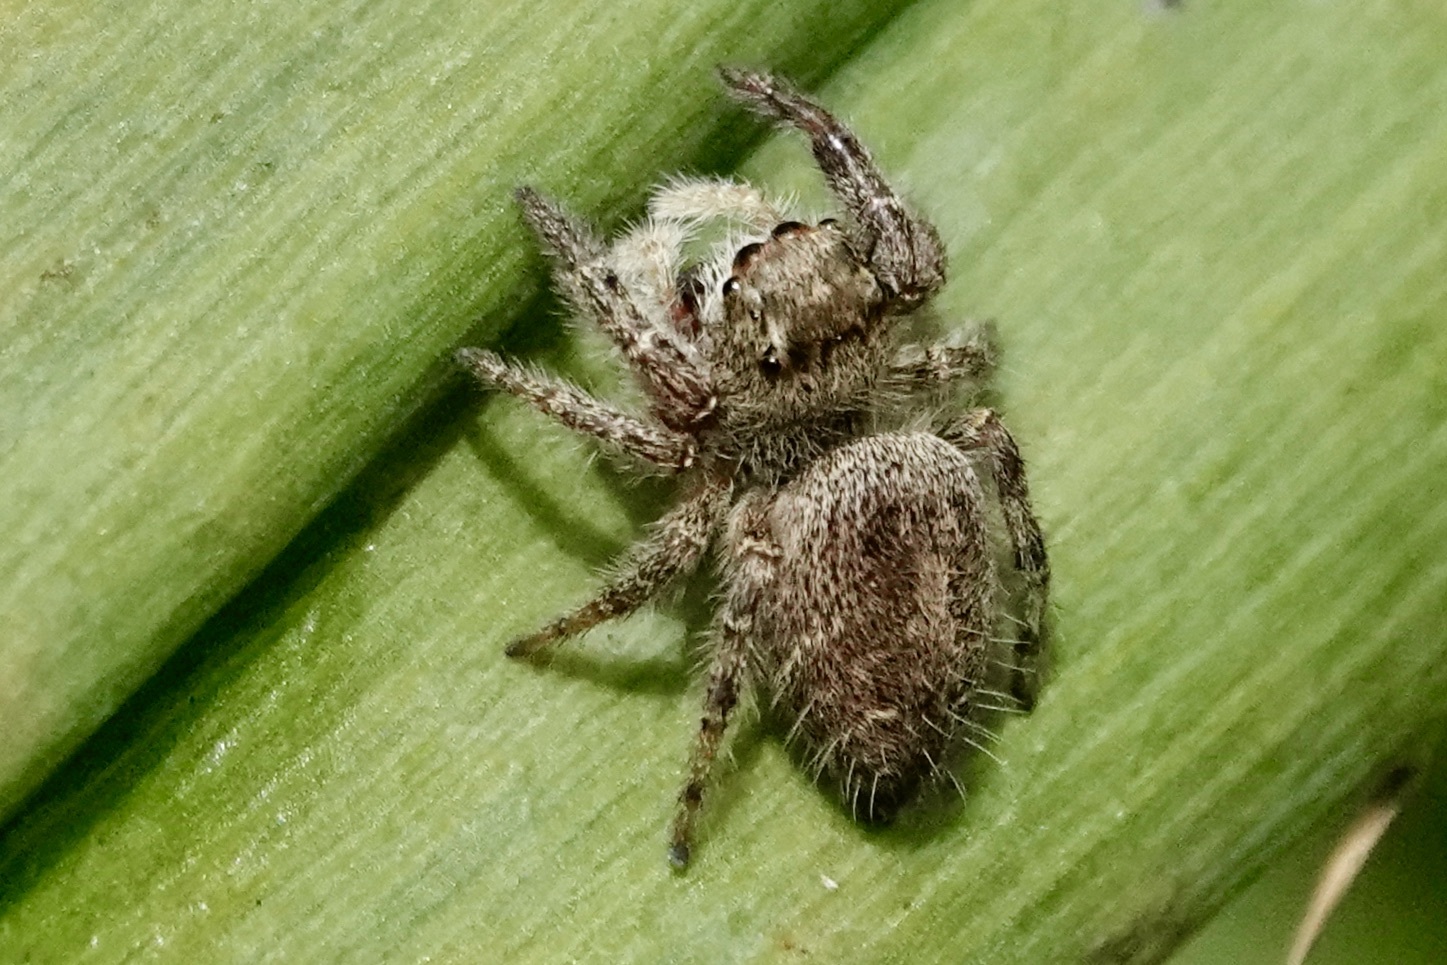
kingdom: Animalia
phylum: Arthropoda
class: Arachnida
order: Araneae
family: Salticidae
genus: Phidippus
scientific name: Phidippus princeps
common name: Grayish jumping spider
